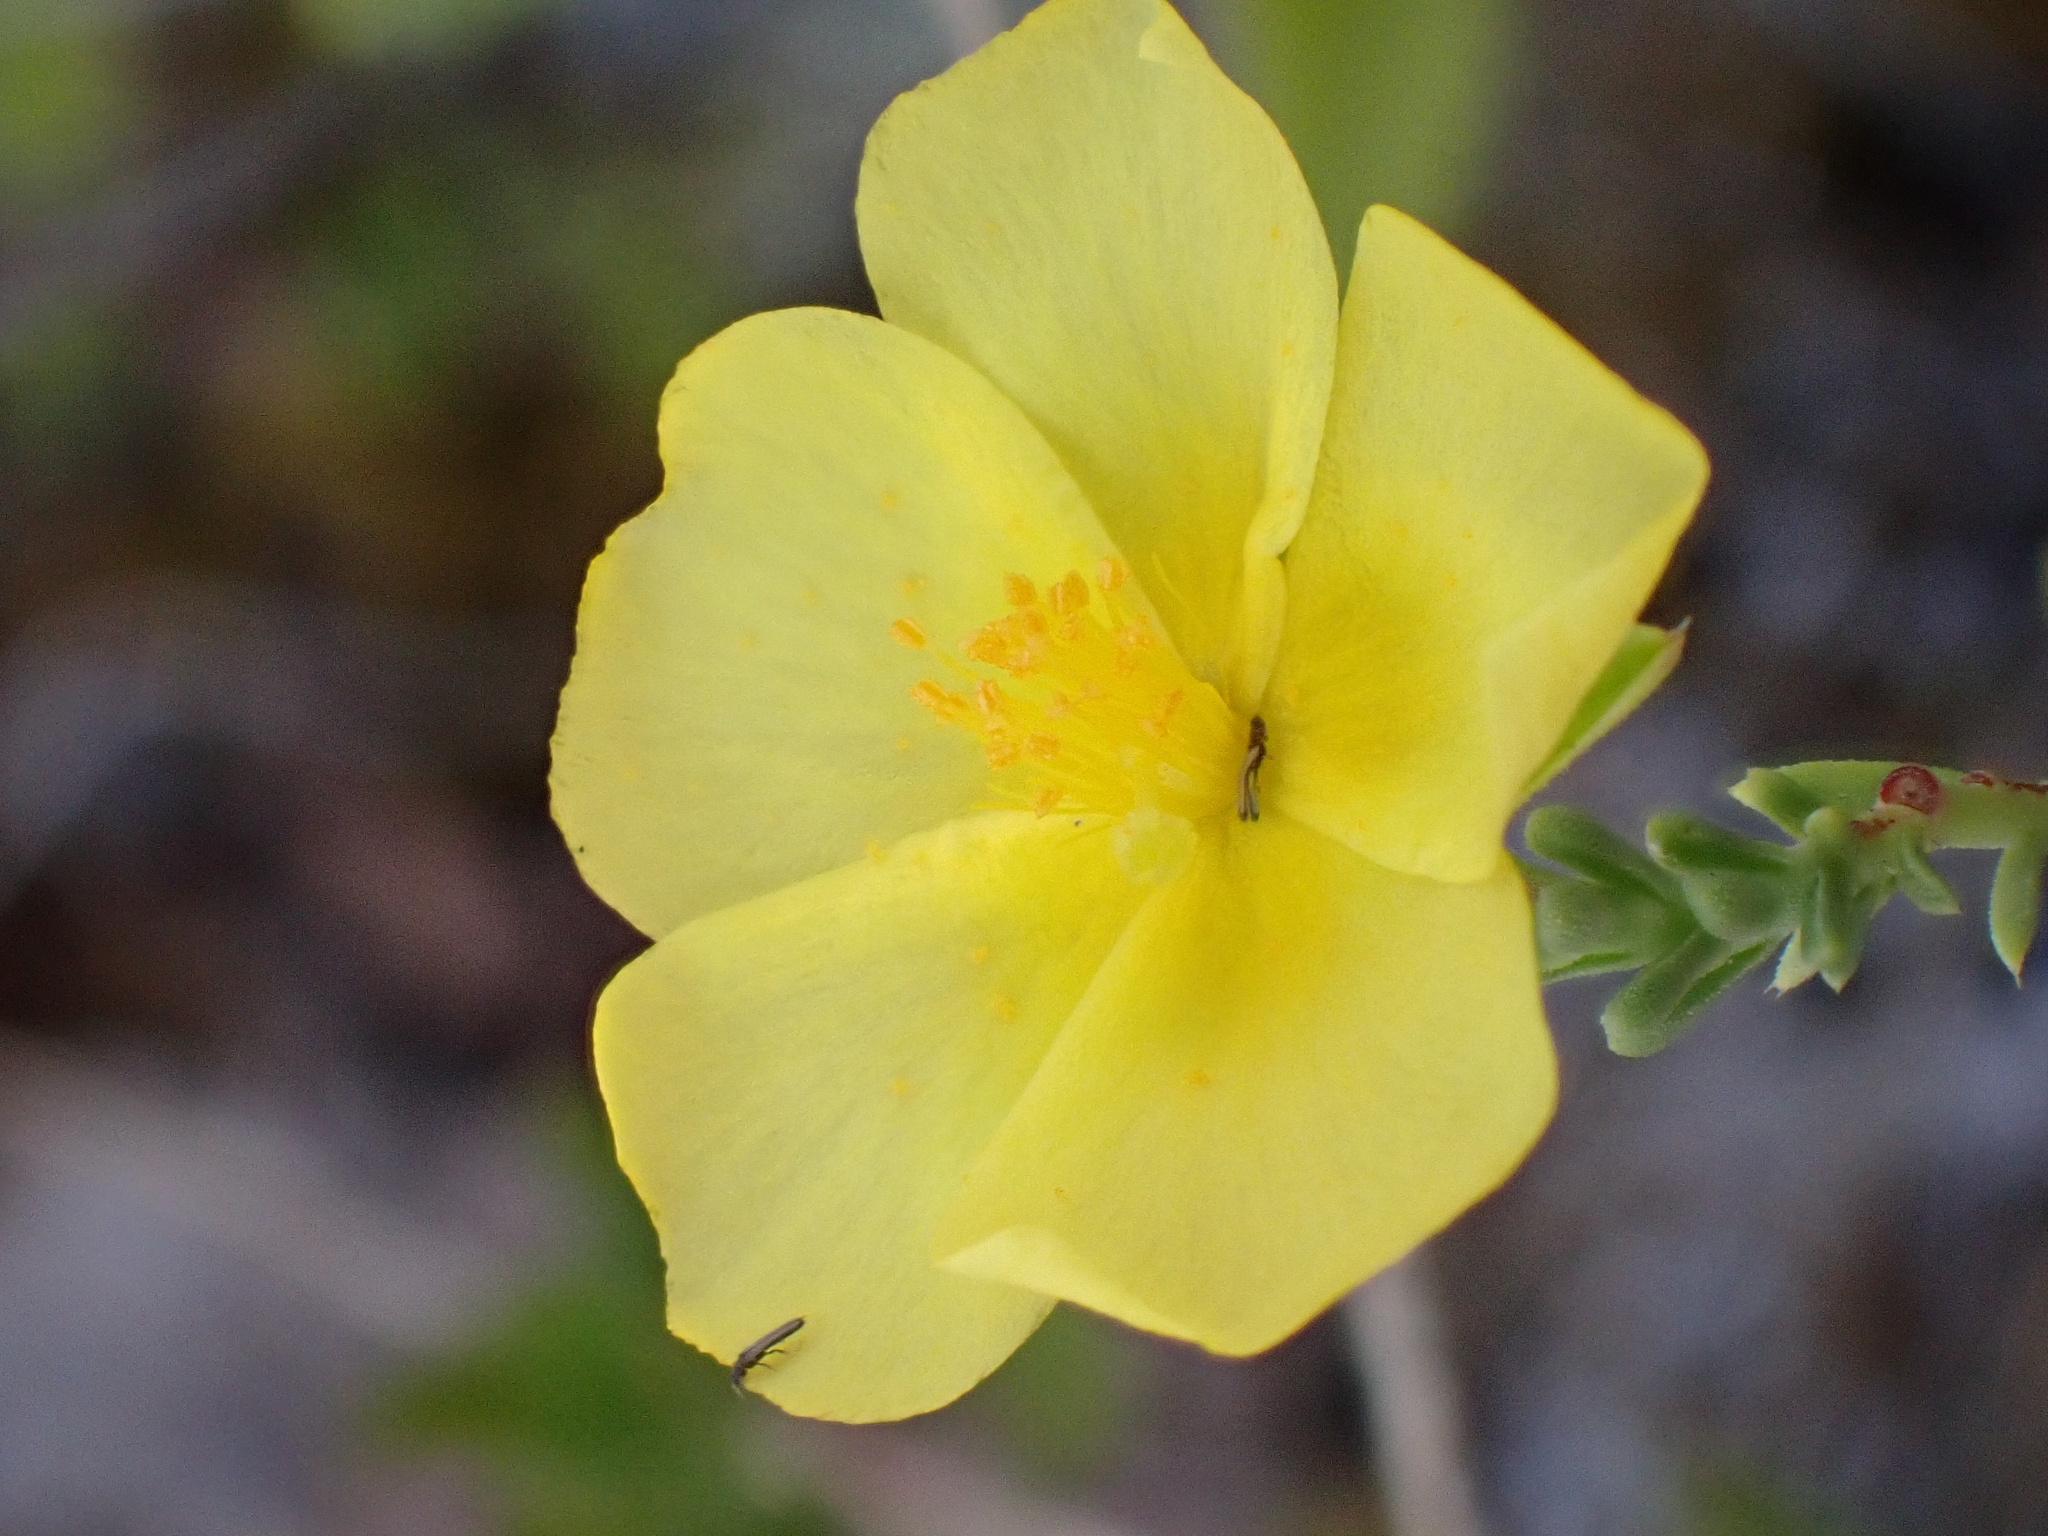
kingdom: Plantae
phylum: Tracheophyta
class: Magnoliopsida
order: Malvales
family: Cistaceae
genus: Fumana
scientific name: Fumana procumbens
